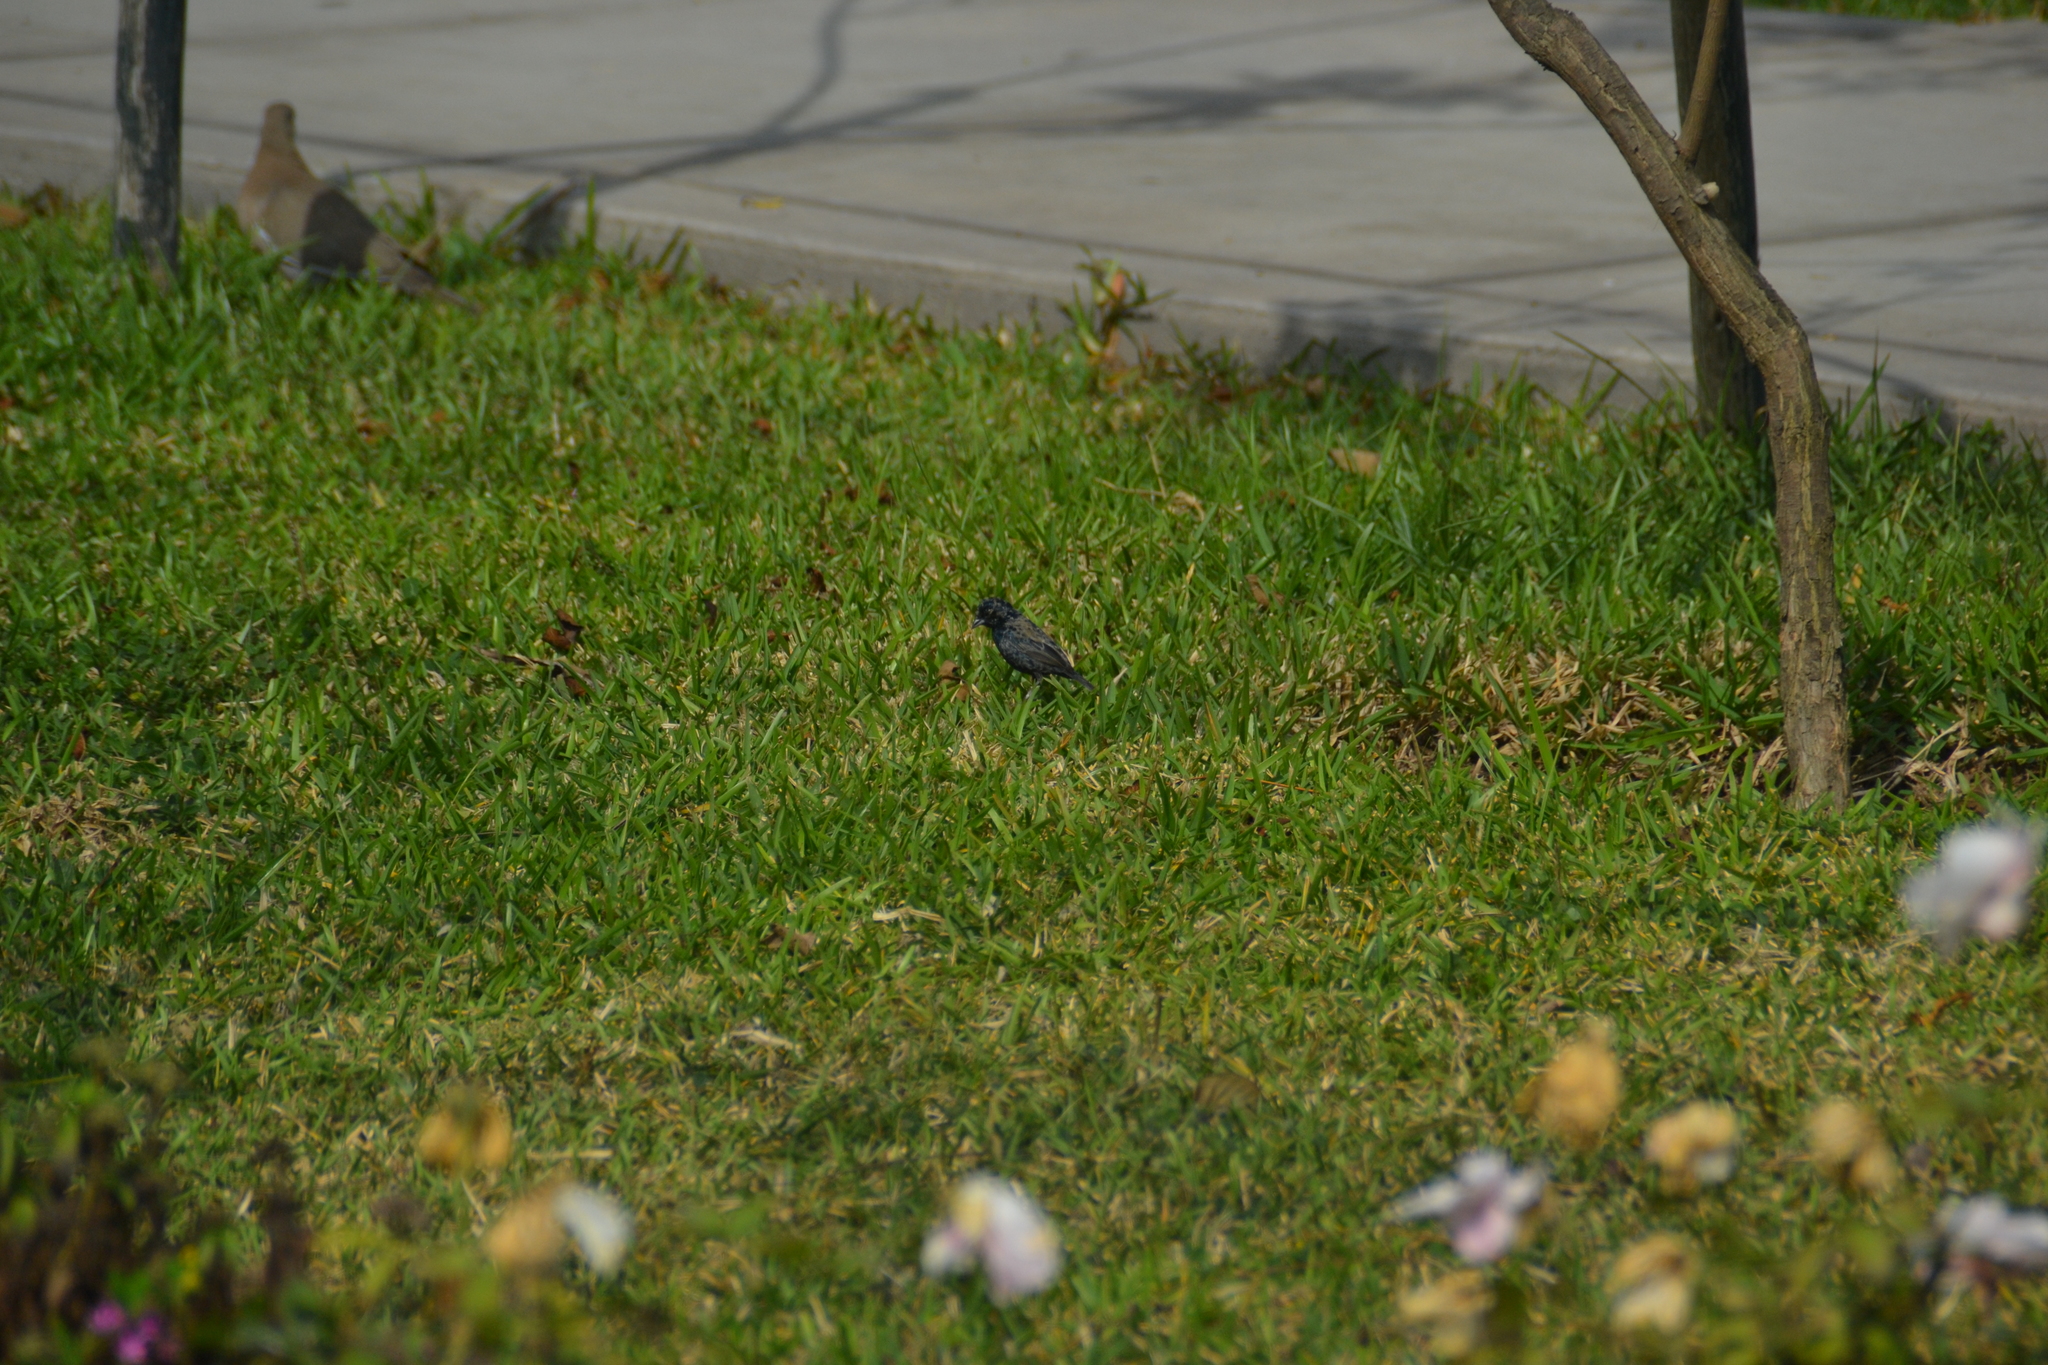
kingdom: Animalia
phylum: Chordata
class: Aves
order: Passeriformes
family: Thraupidae
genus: Volatinia
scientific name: Volatinia jacarina
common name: Blue-black grassquit
